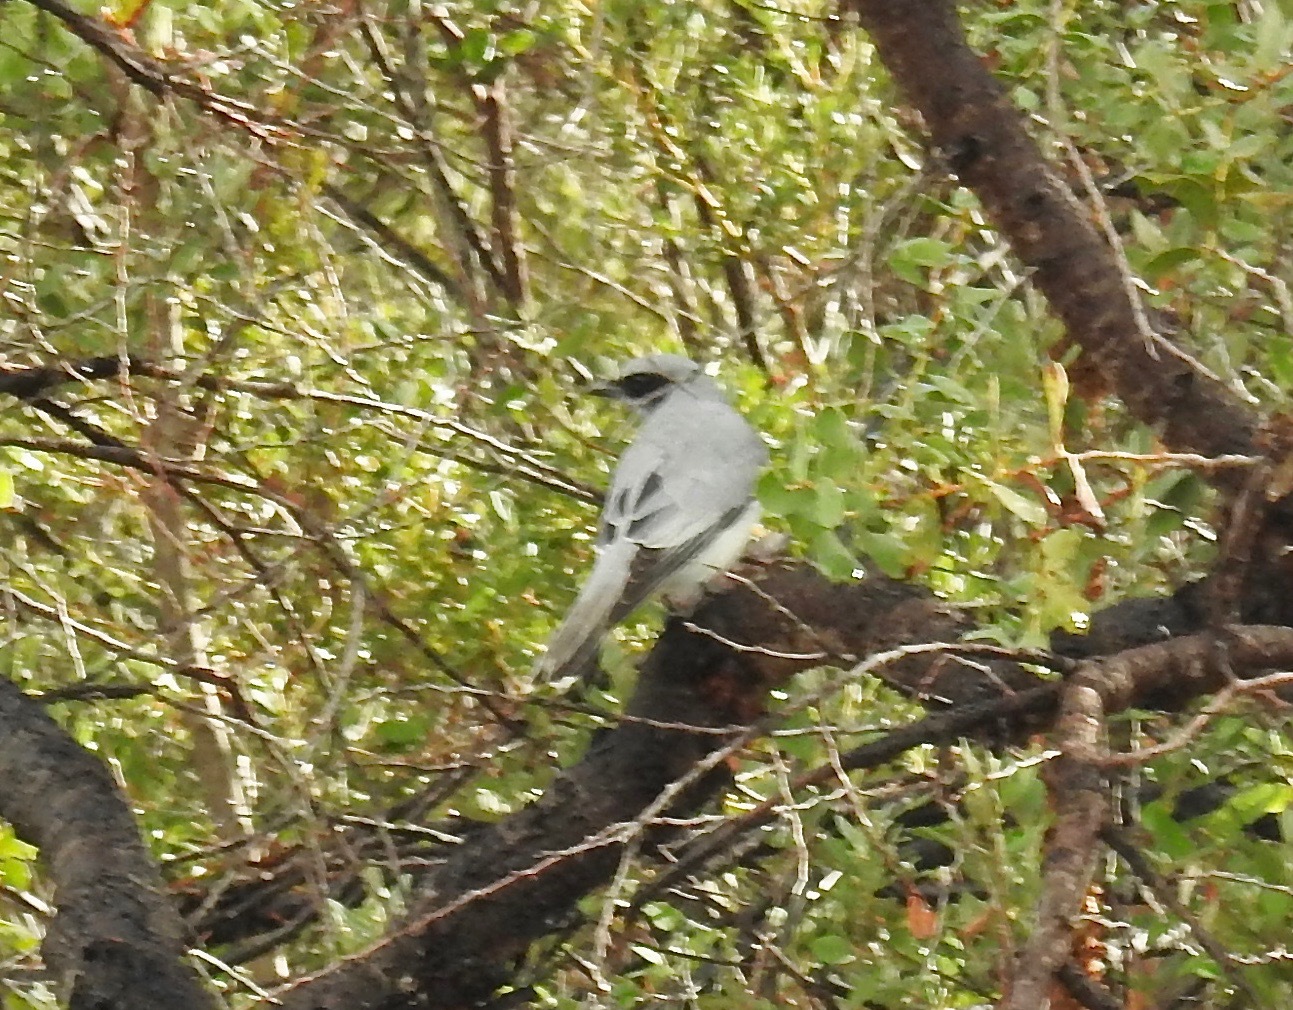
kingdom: Animalia
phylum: Chordata
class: Aves
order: Passeriformes
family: Campephagidae
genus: Coracina
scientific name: Coracina novaehollandiae
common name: Black-faced cuckooshrike
